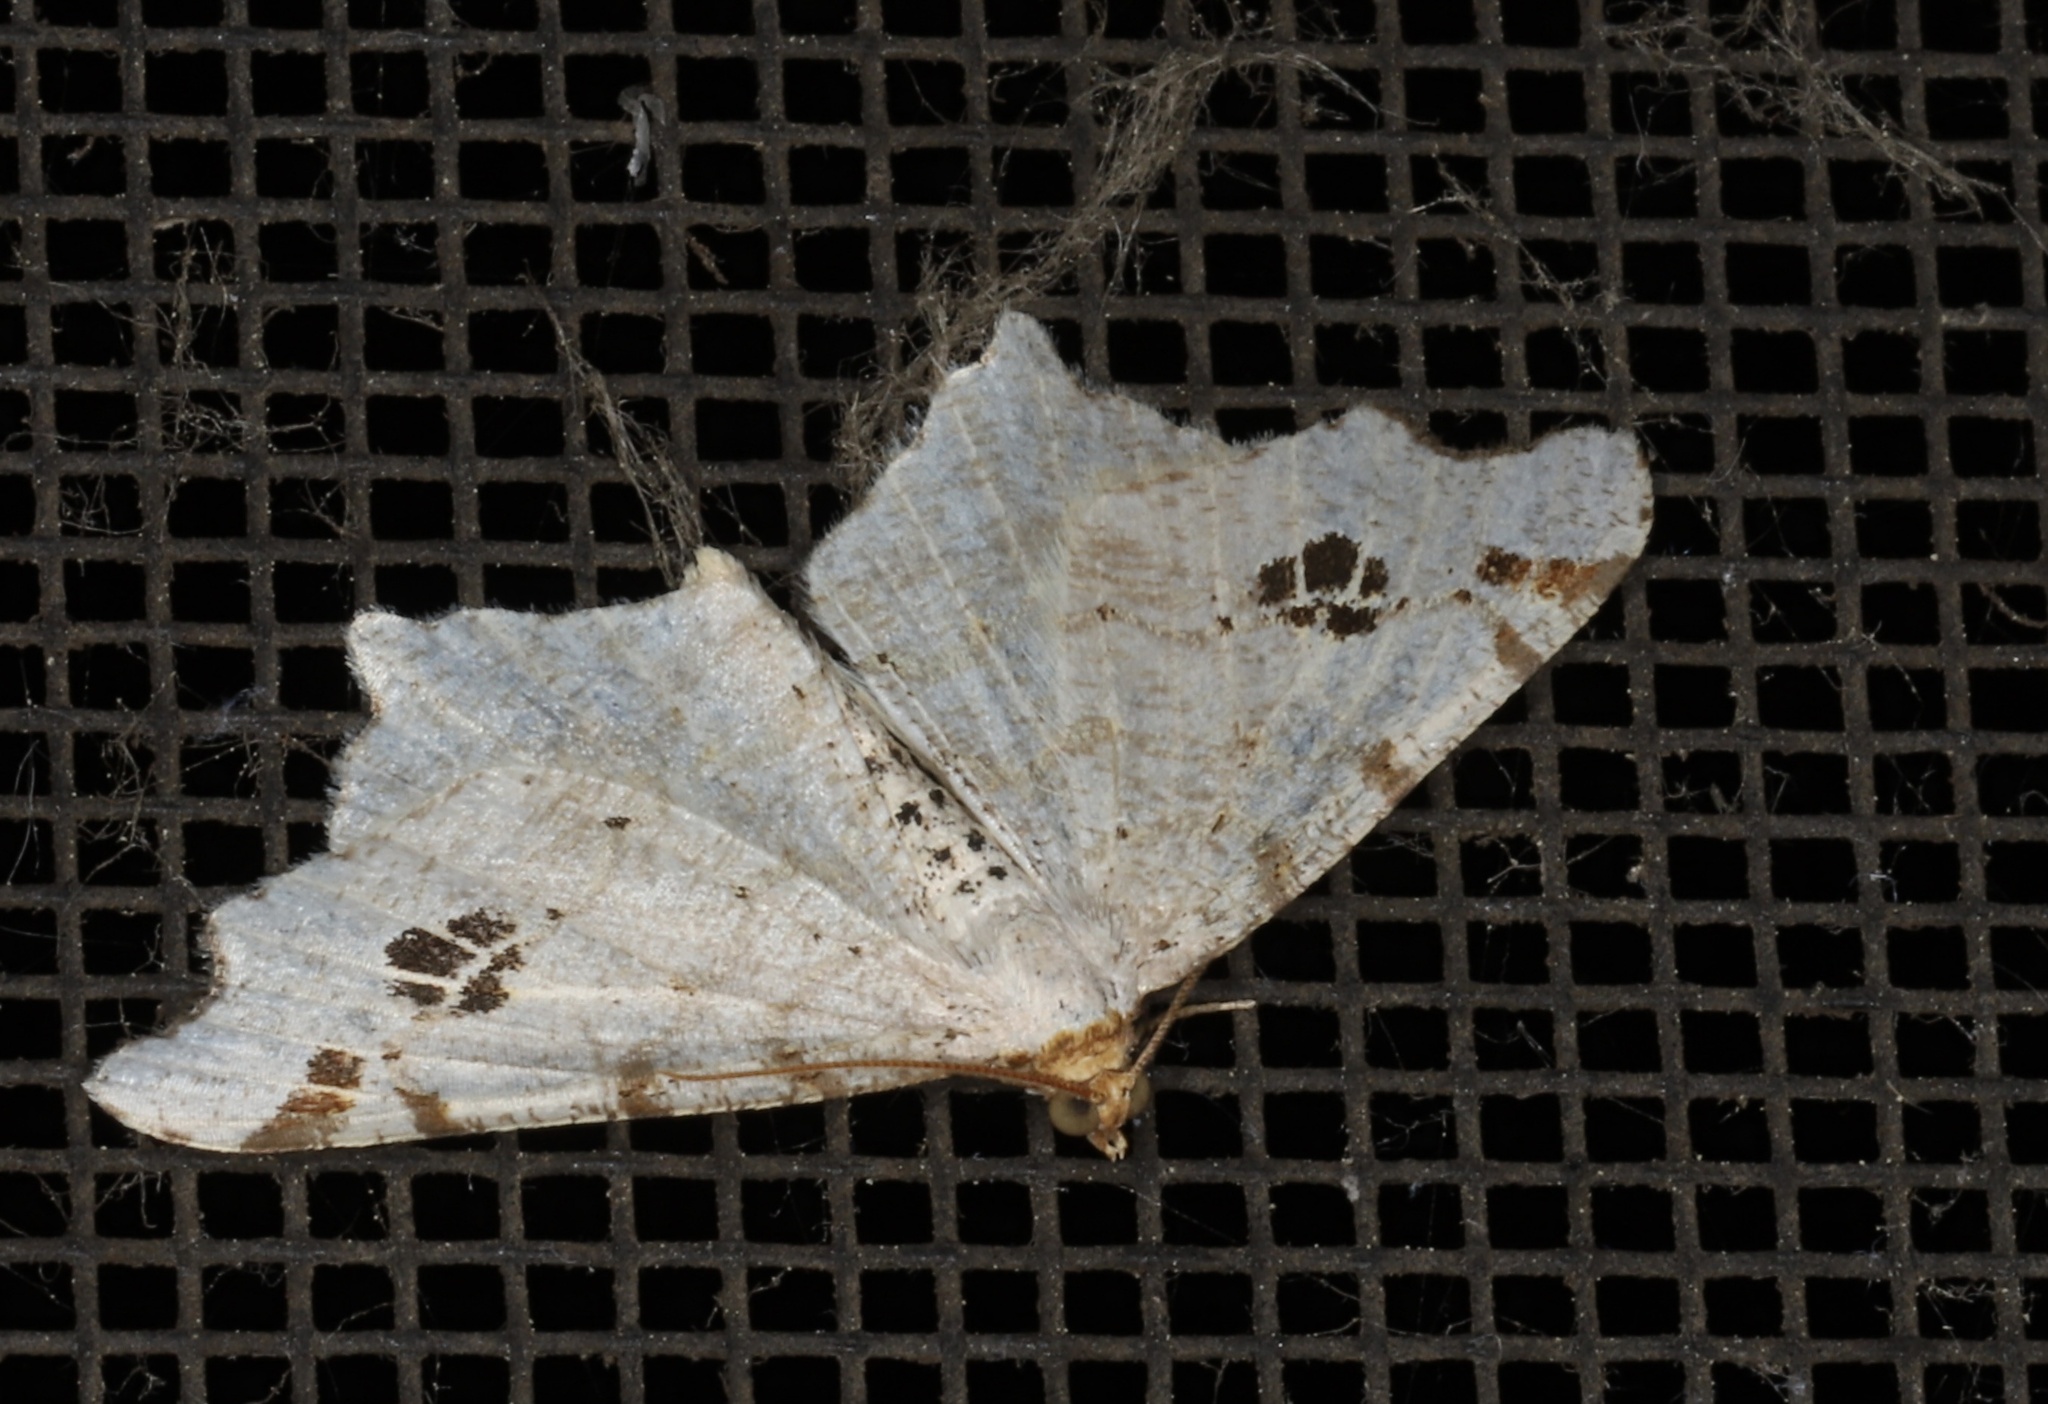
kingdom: Animalia
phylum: Arthropoda
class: Insecta
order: Lepidoptera
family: Geometridae
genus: Macaria
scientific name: Macaria ulsterata
